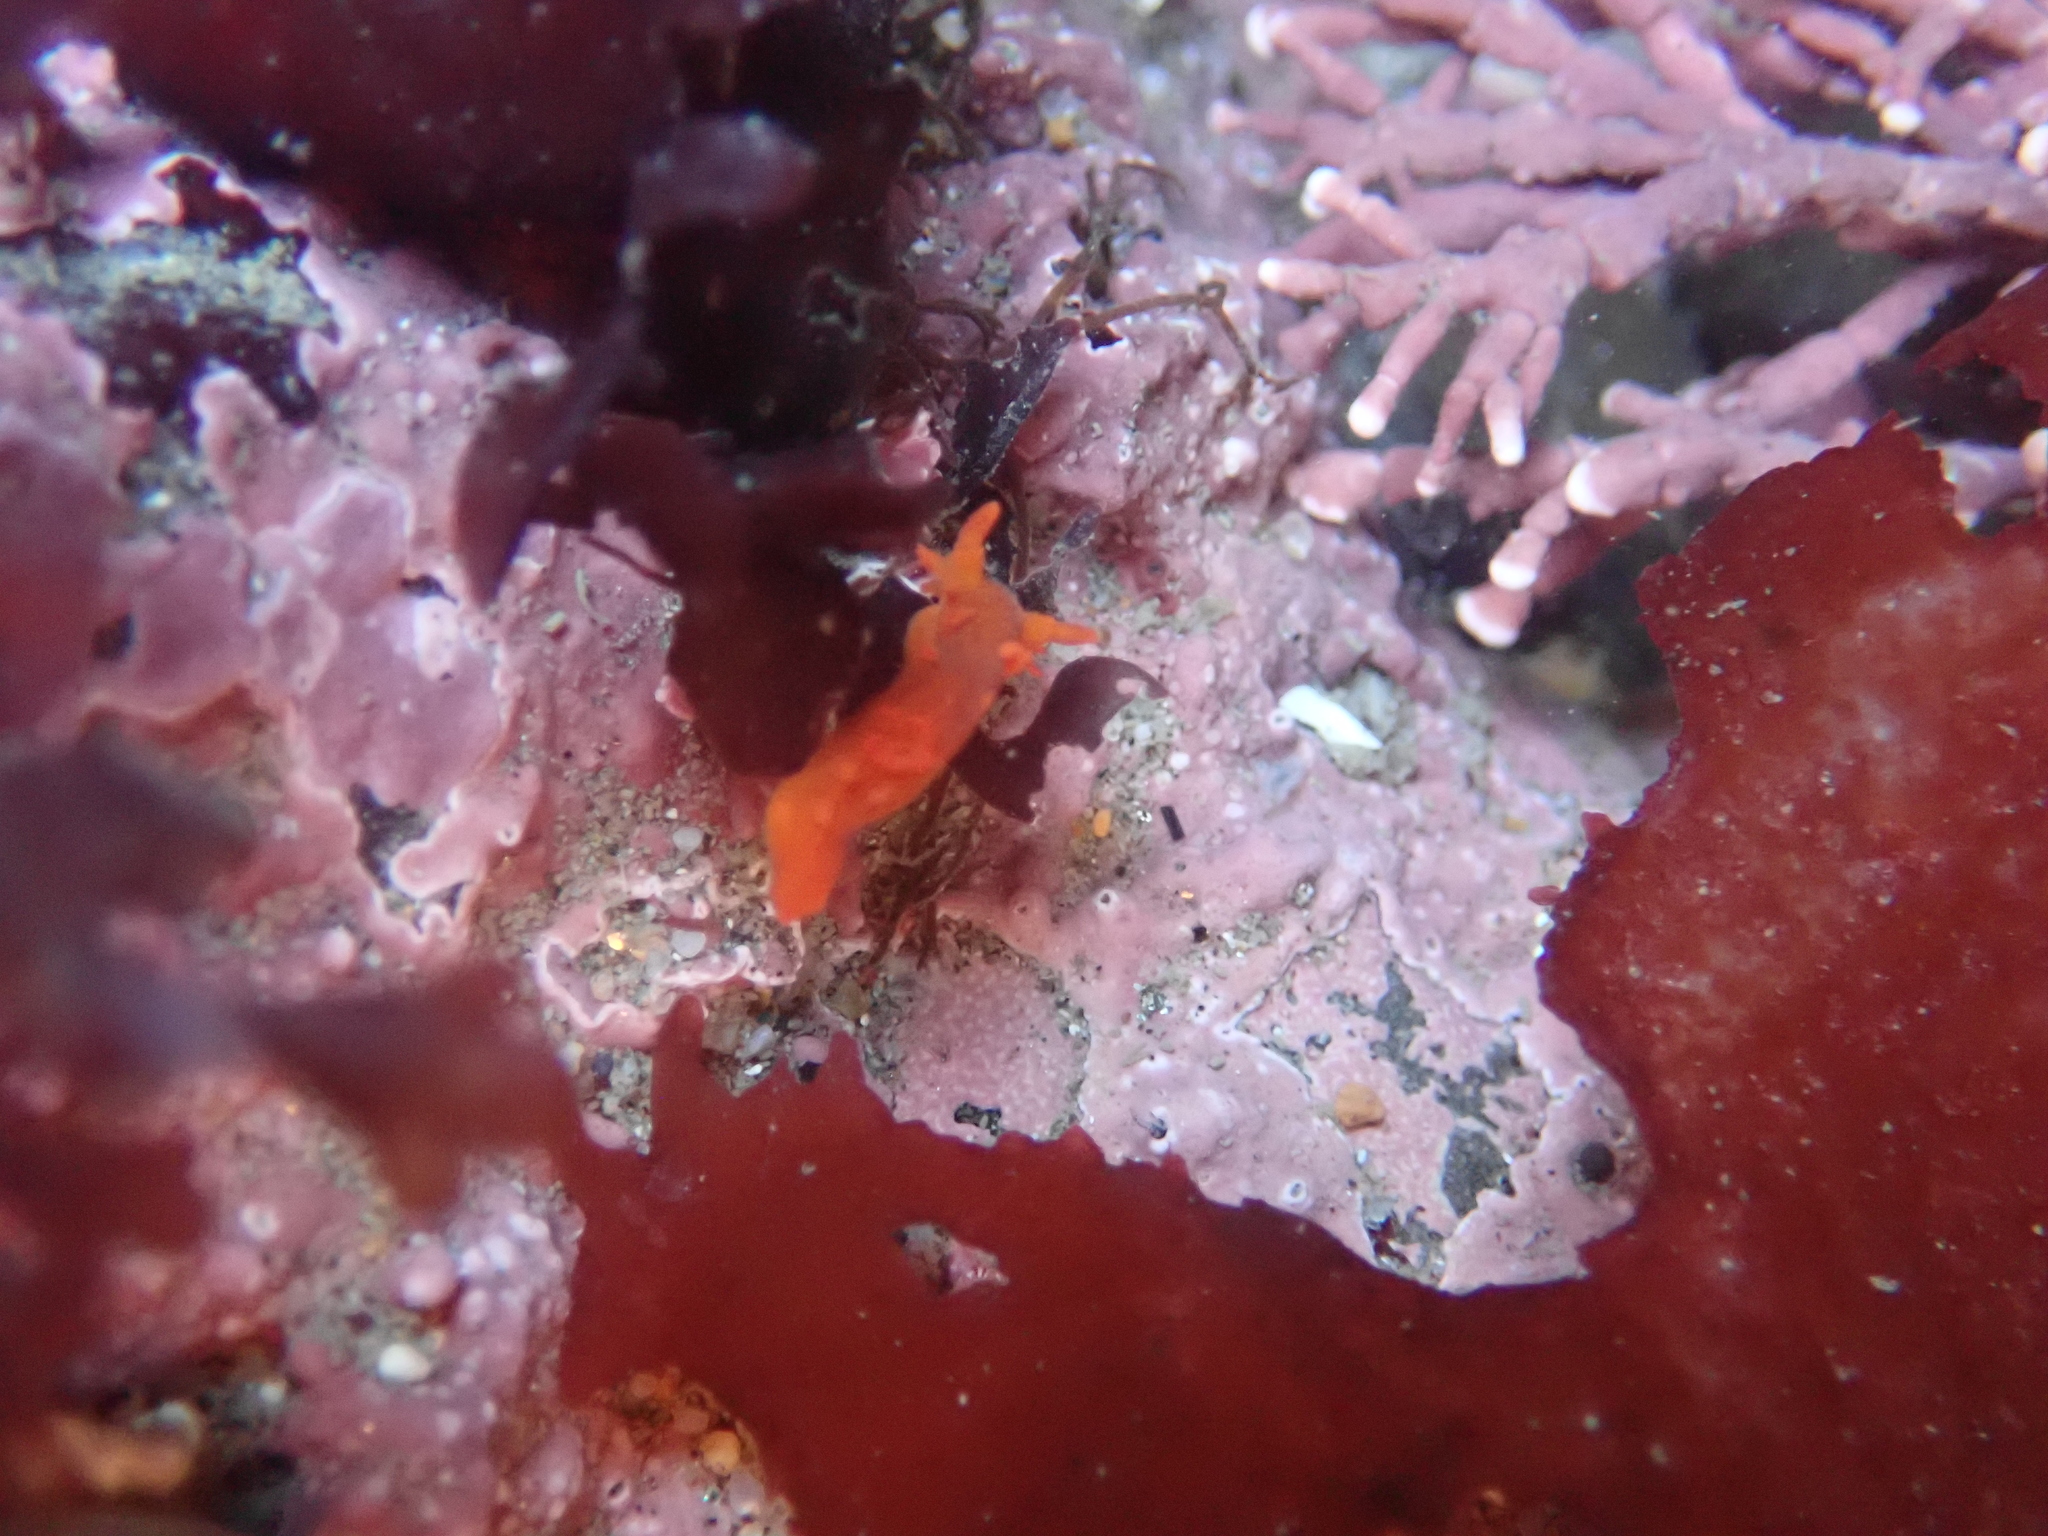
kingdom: Animalia
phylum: Mollusca
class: Gastropoda
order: Nudibranchia
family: Polyceridae
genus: Triopha
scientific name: Triopha maculata
